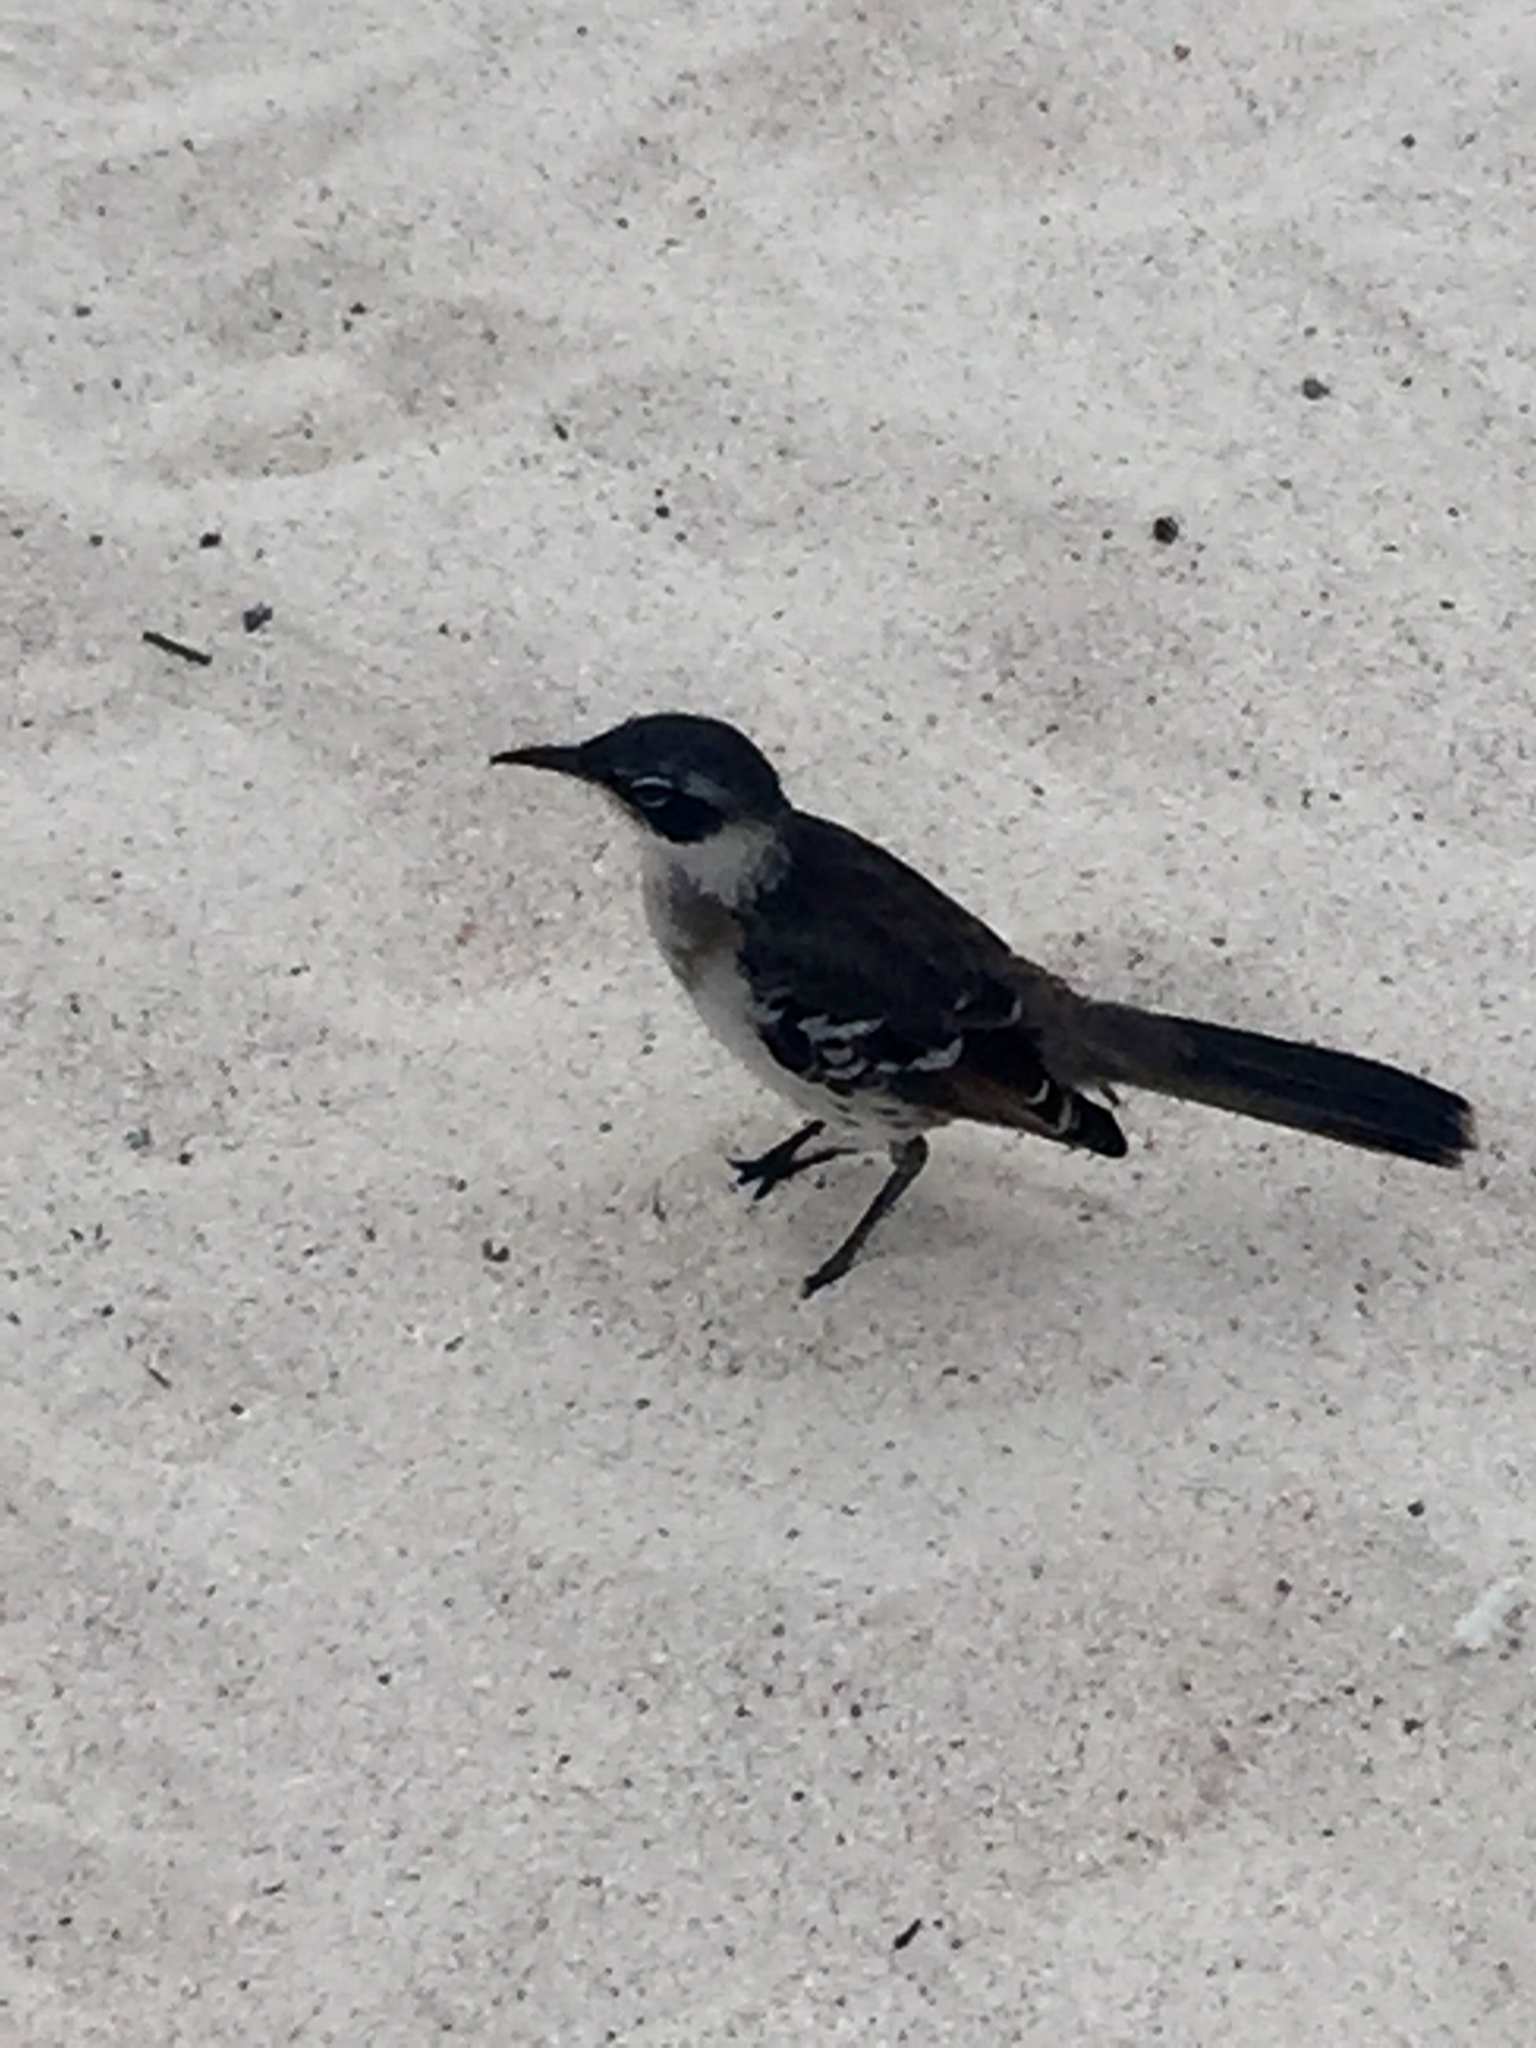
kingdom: Animalia
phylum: Chordata
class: Aves
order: Passeriformes
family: Mimidae
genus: Mimus
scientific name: Mimus parvulus
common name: Galapagos mockingbird
